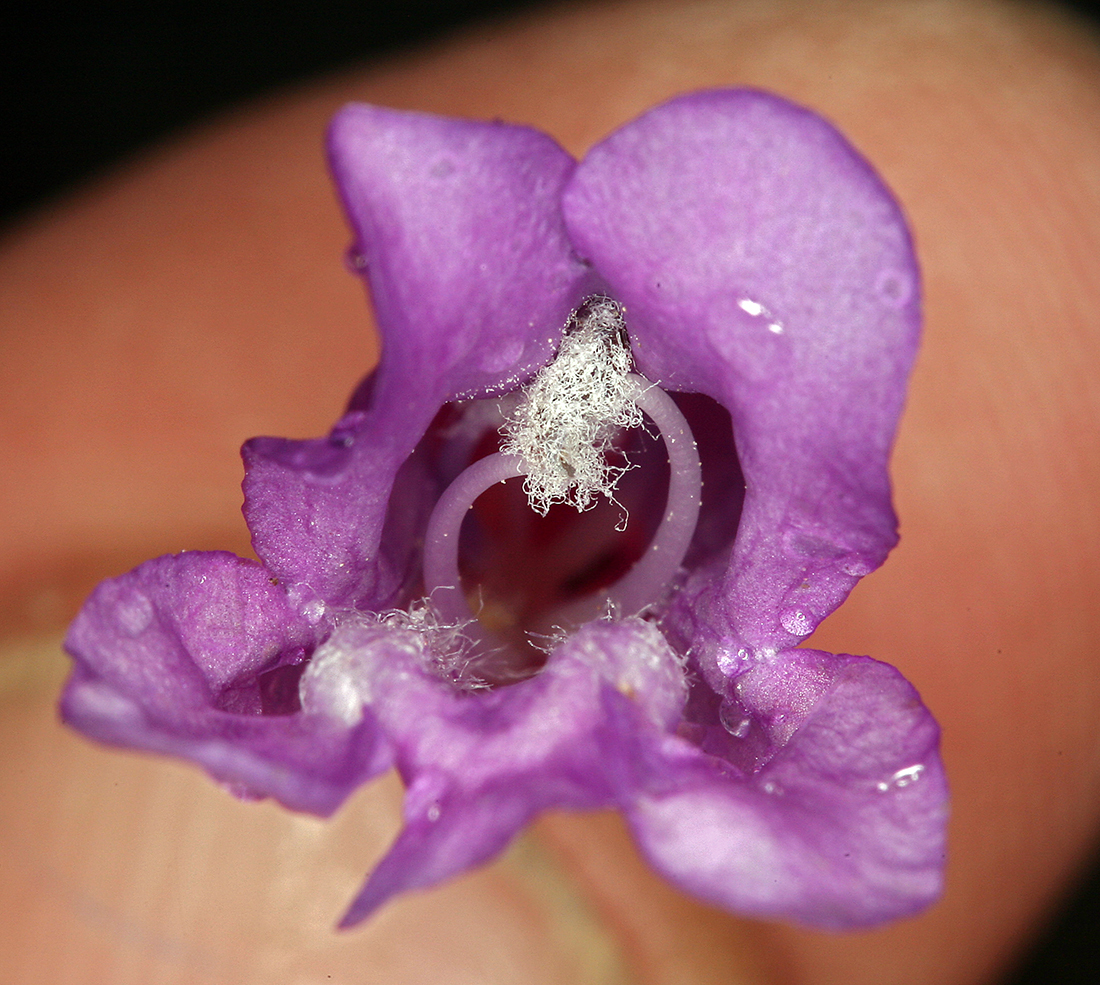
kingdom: Plantae
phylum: Tracheophyta
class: Magnoliopsida
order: Lamiales
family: Plantaginaceae
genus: Penstemon
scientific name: Penstemon davidsonii
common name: Davidson's penstemon
